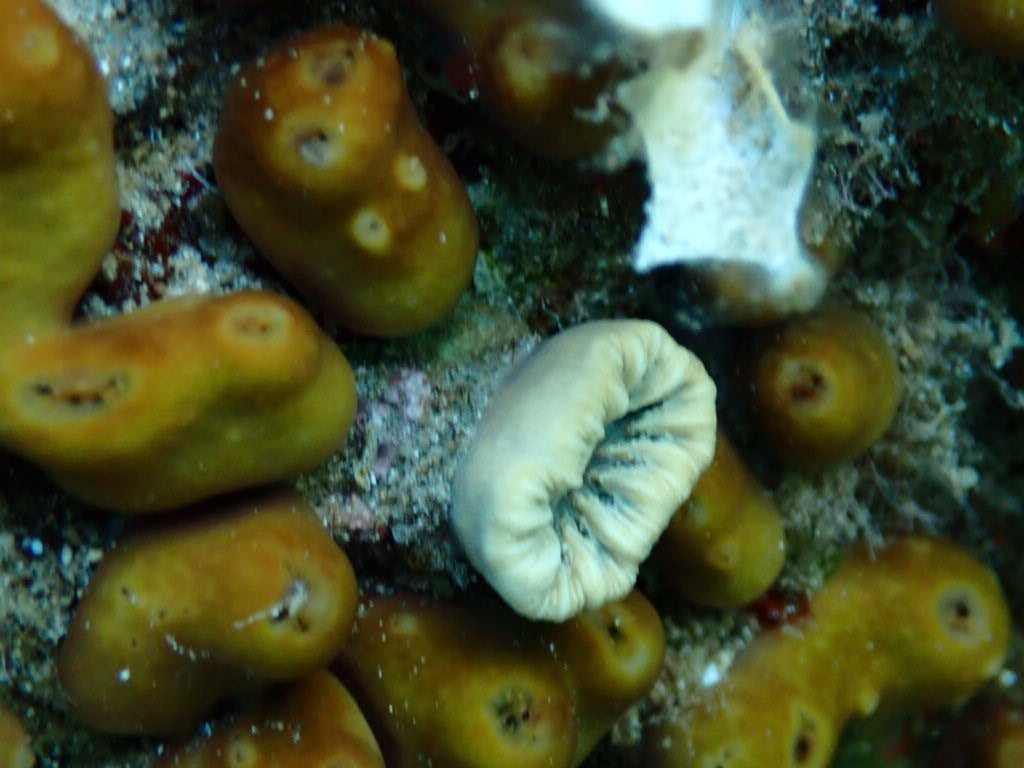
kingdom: Animalia
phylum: Cnidaria
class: Anthozoa
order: Scleractinia
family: Dendrophylliidae
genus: Balanophyllia
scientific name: Balanophyllia europaea
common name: Scarlet coral
